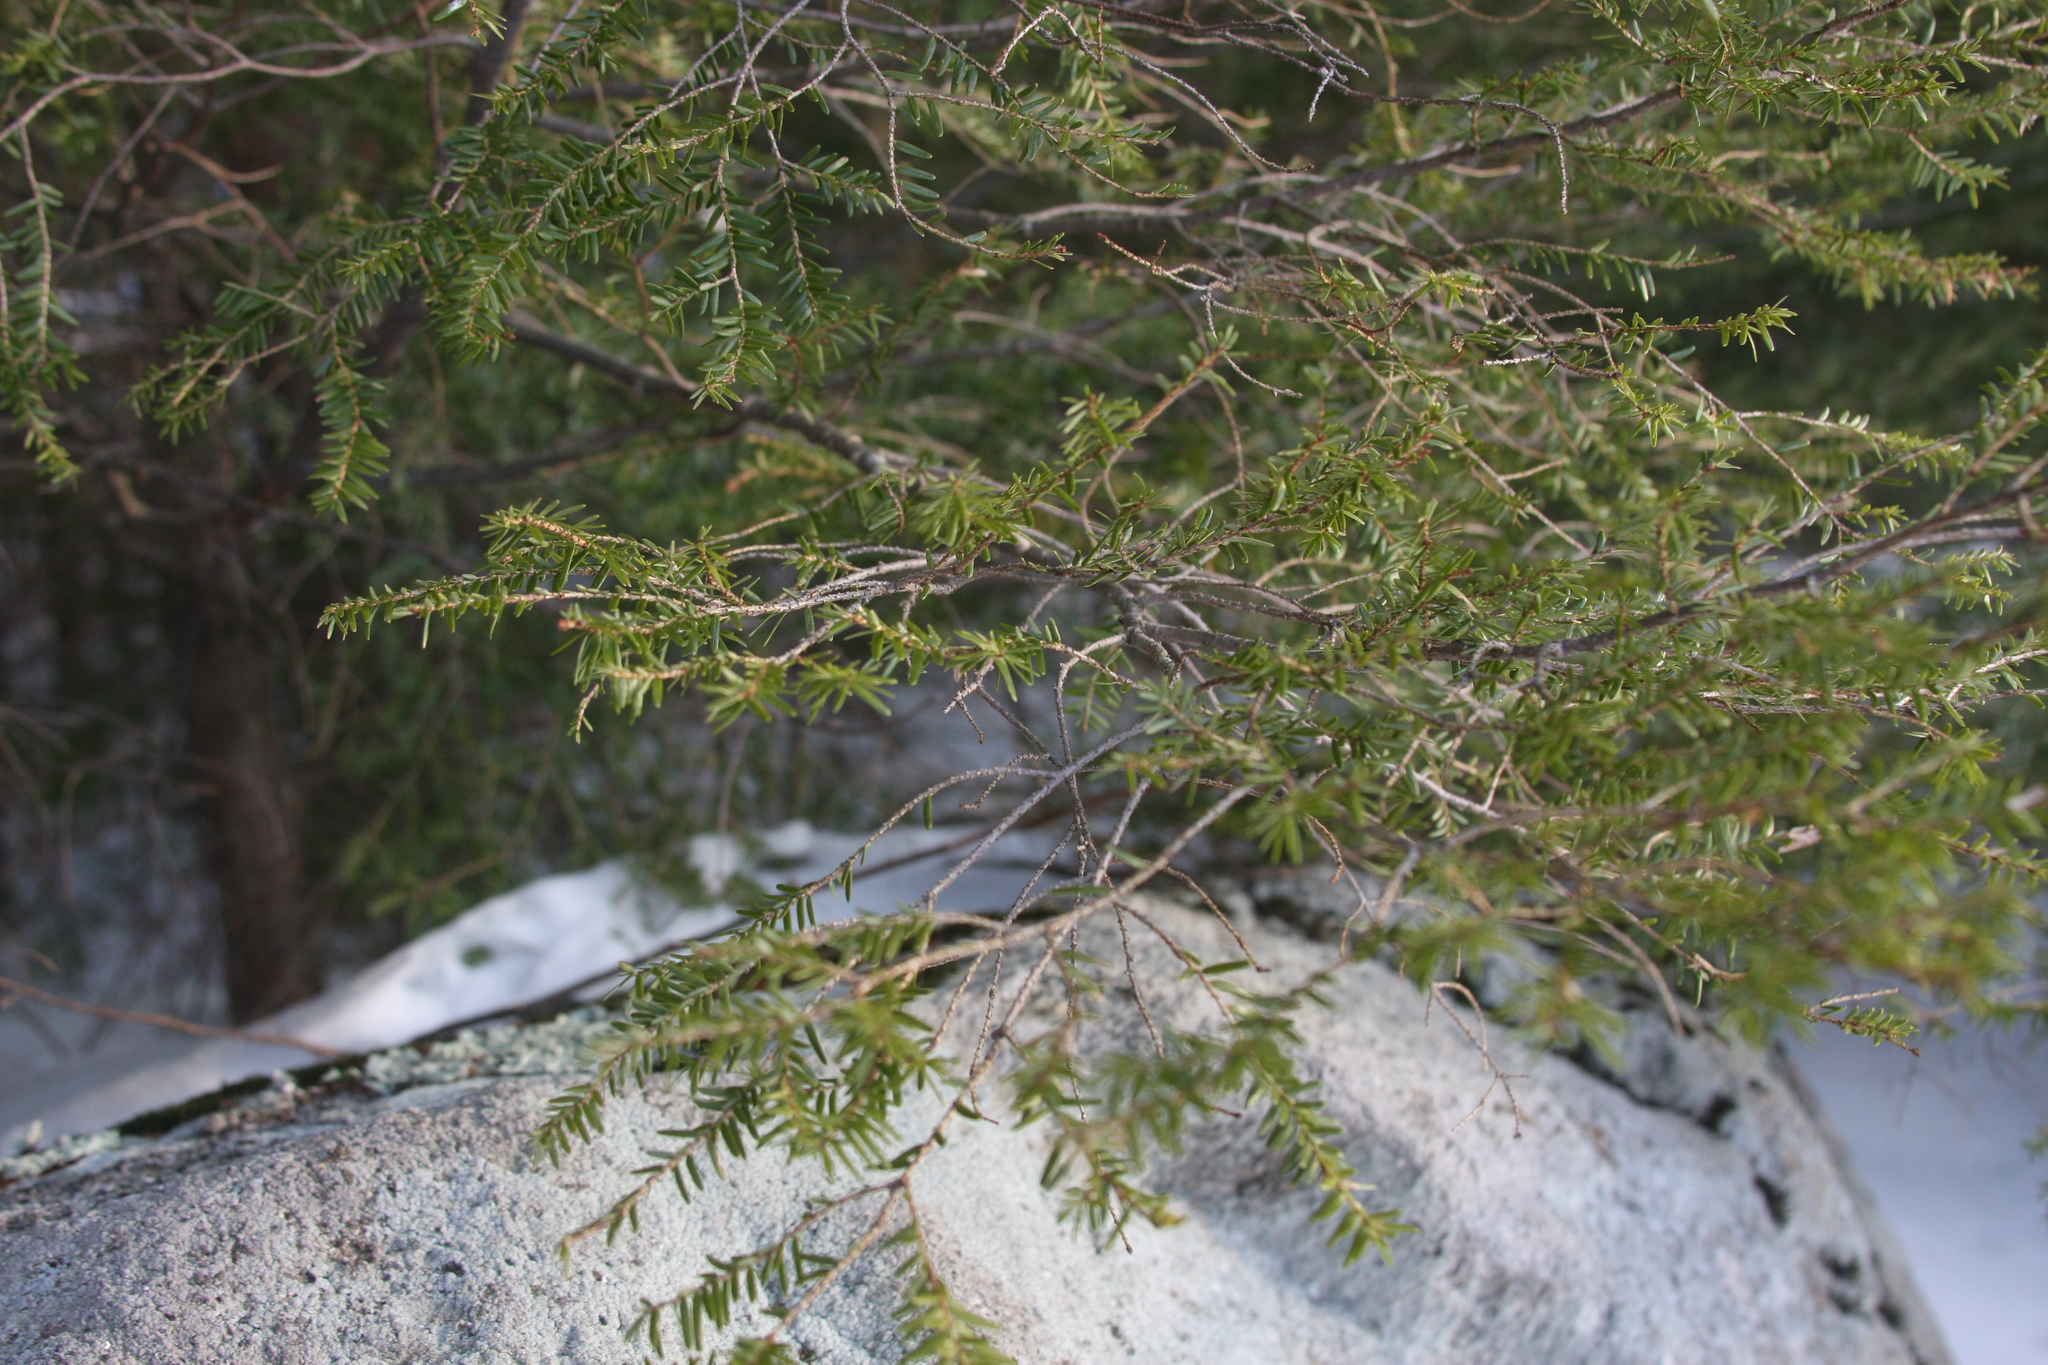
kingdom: Plantae
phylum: Tracheophyta
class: Pinopsida
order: Pinales
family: Pinaceae
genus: Tsuga
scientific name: Tsuga canadensis
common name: Eastern hemlock
